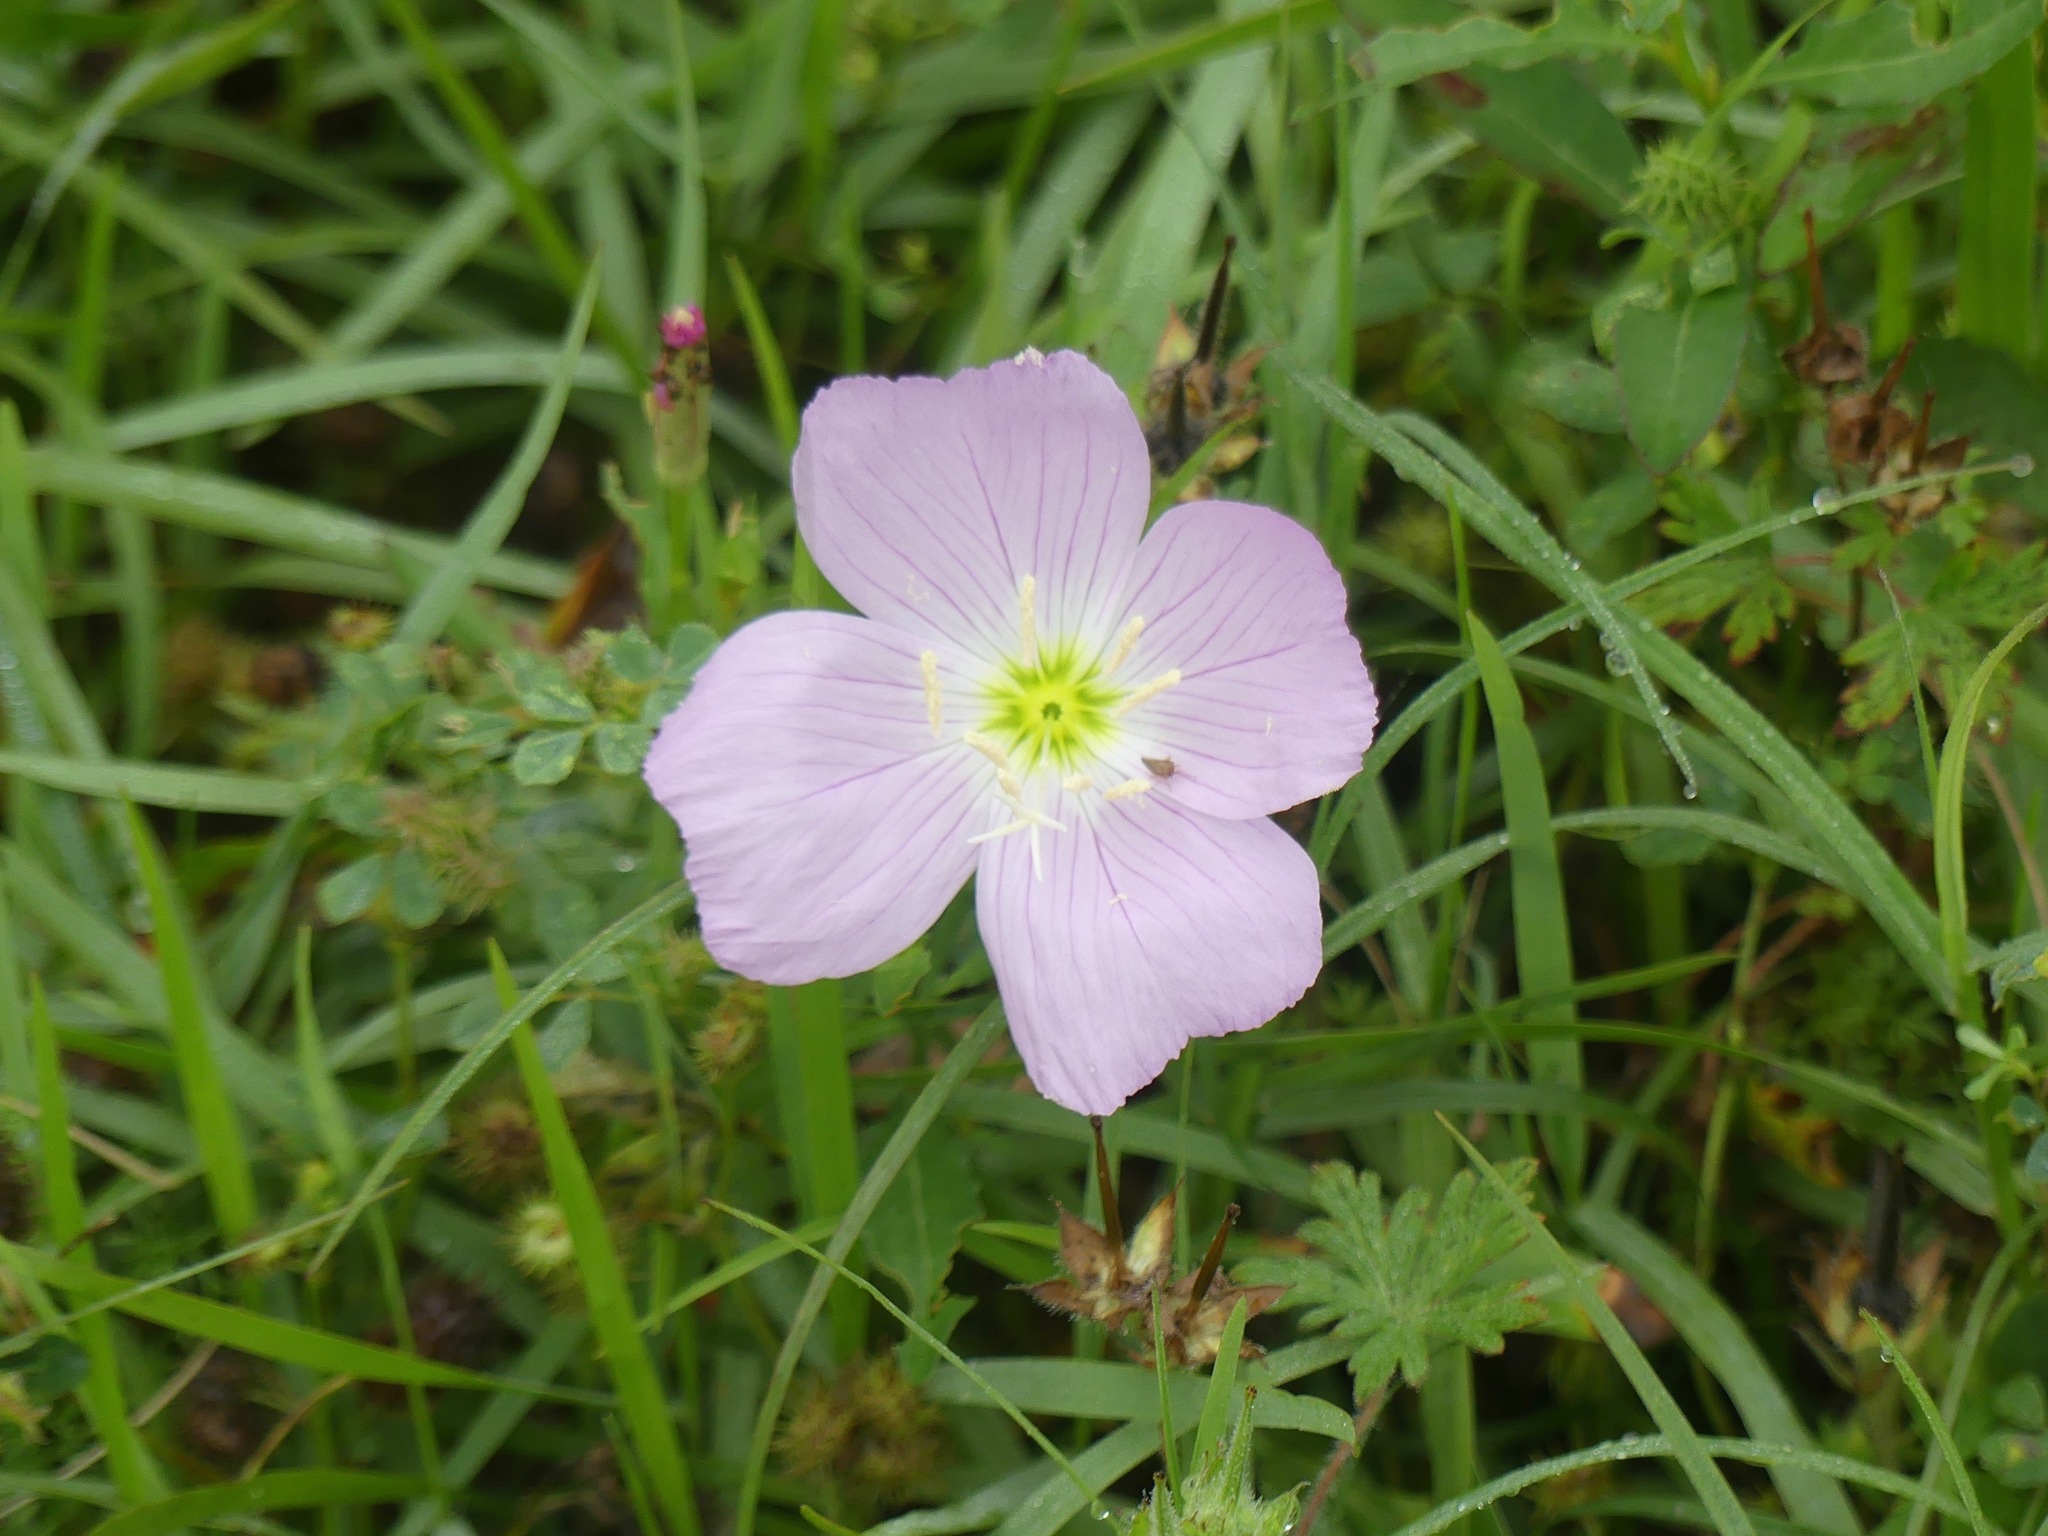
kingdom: Plantae
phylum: Tracheophyta
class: Magnoliopsida
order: Myrtales
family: Onagraceae
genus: Oenothera
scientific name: Oenothera speciosa
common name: White evening-primrose
